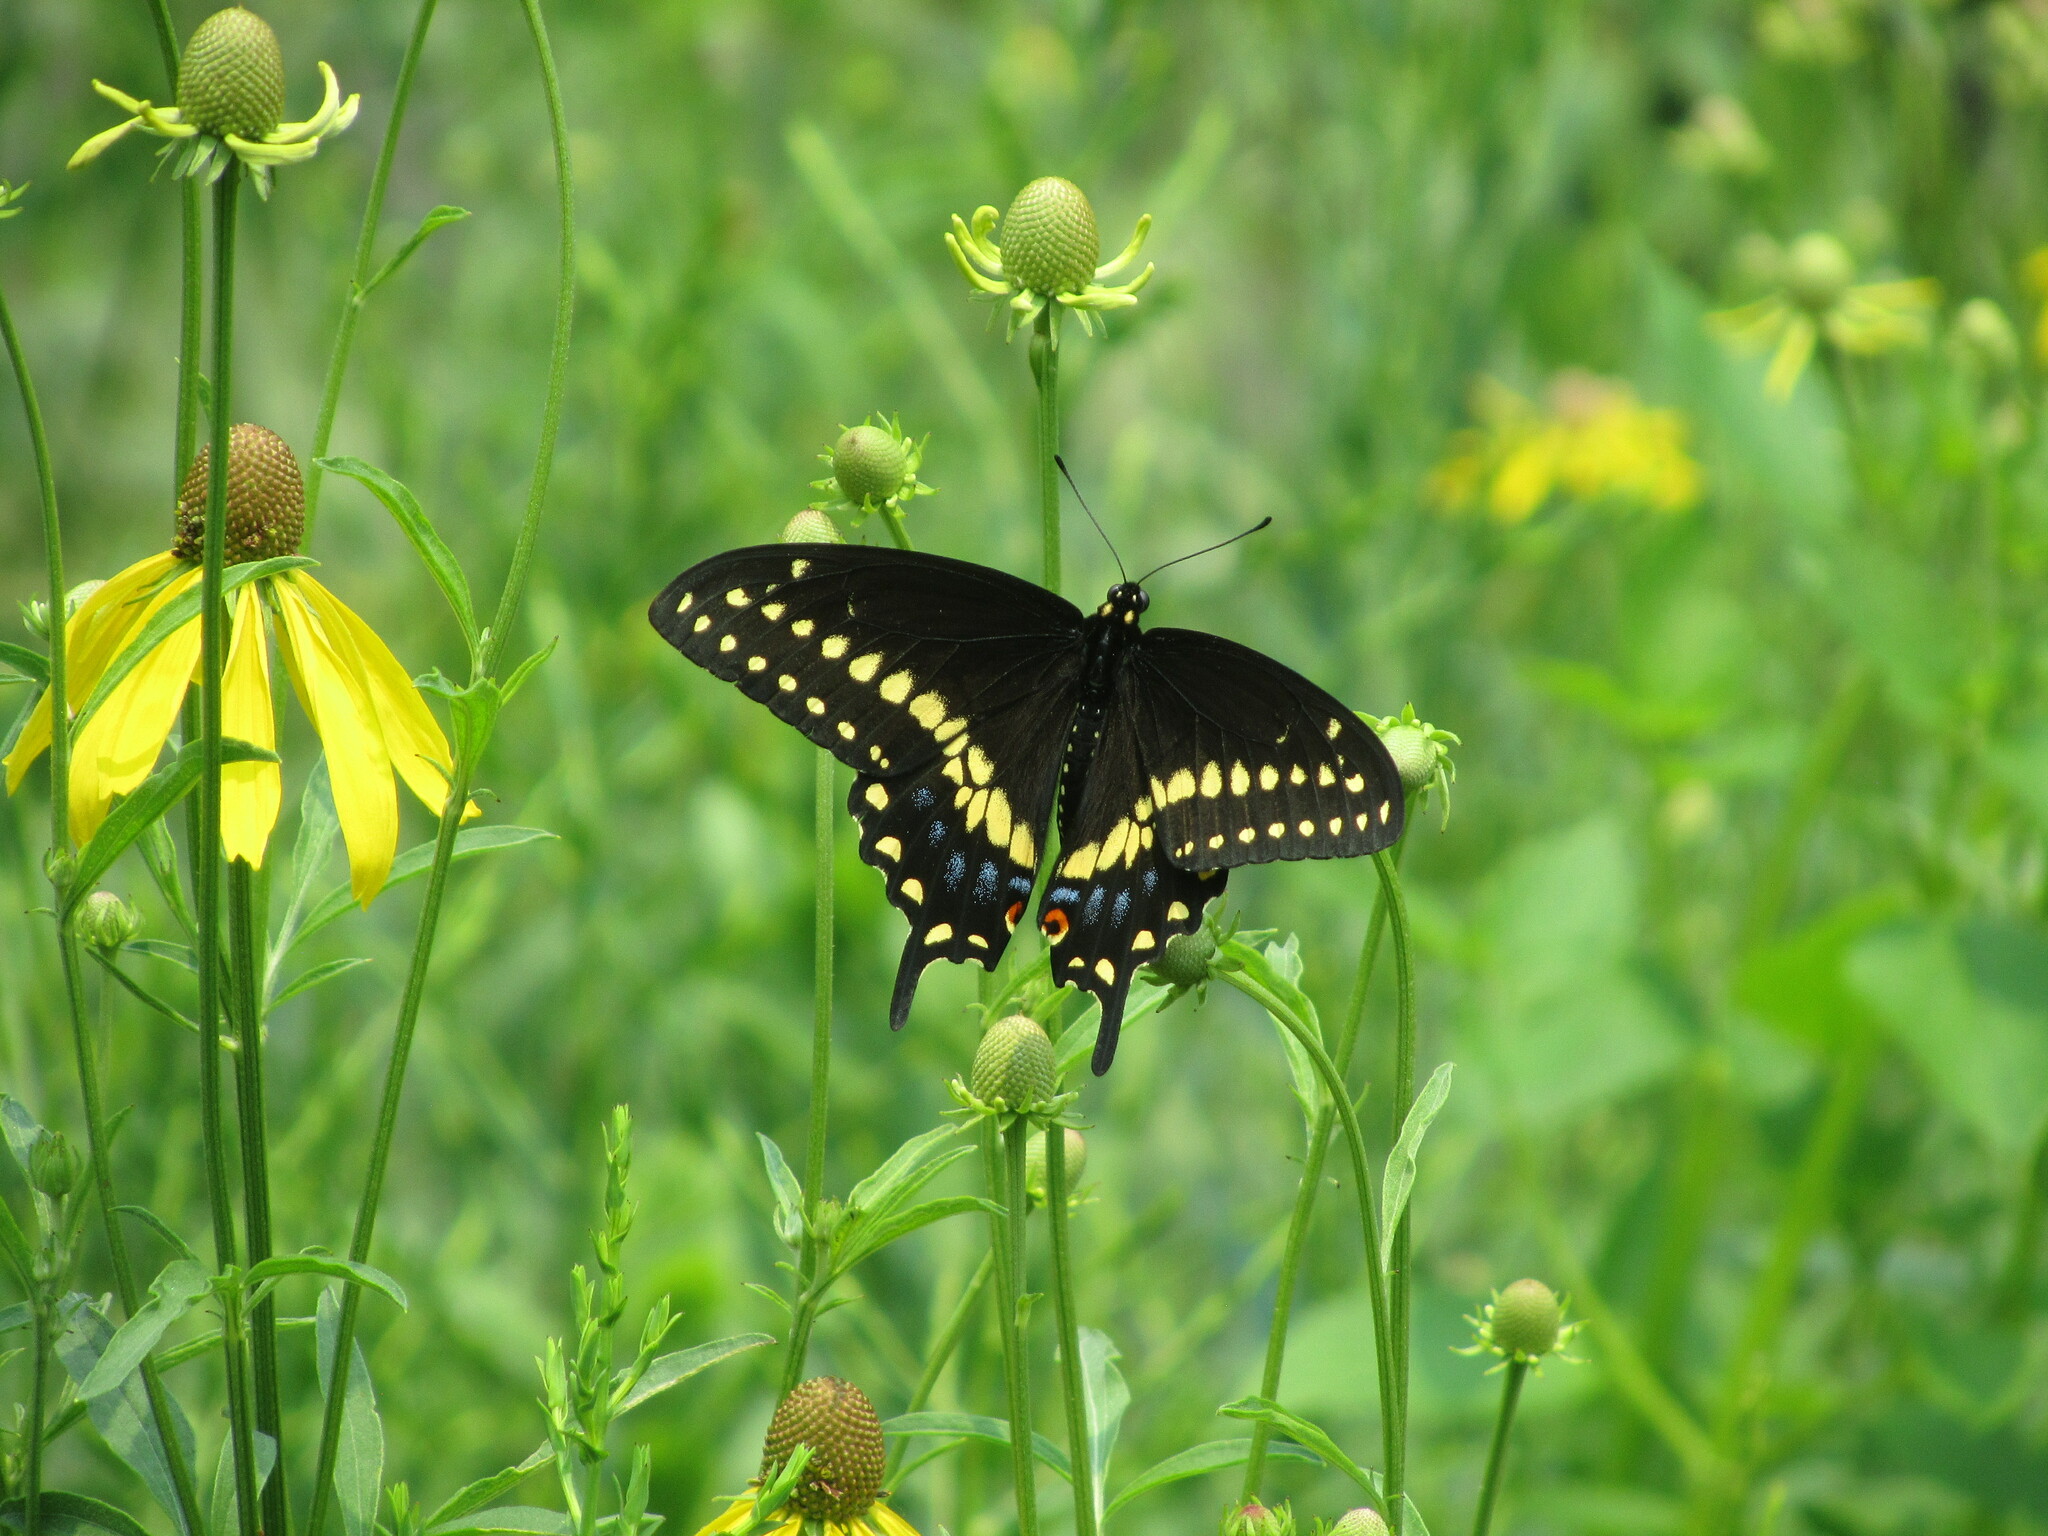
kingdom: Animalia
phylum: Arthropoda
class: Insecta
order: Lepidoptera
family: Papilionidae
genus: Papilio
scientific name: Papilio polyxenes
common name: Black swallowtail
